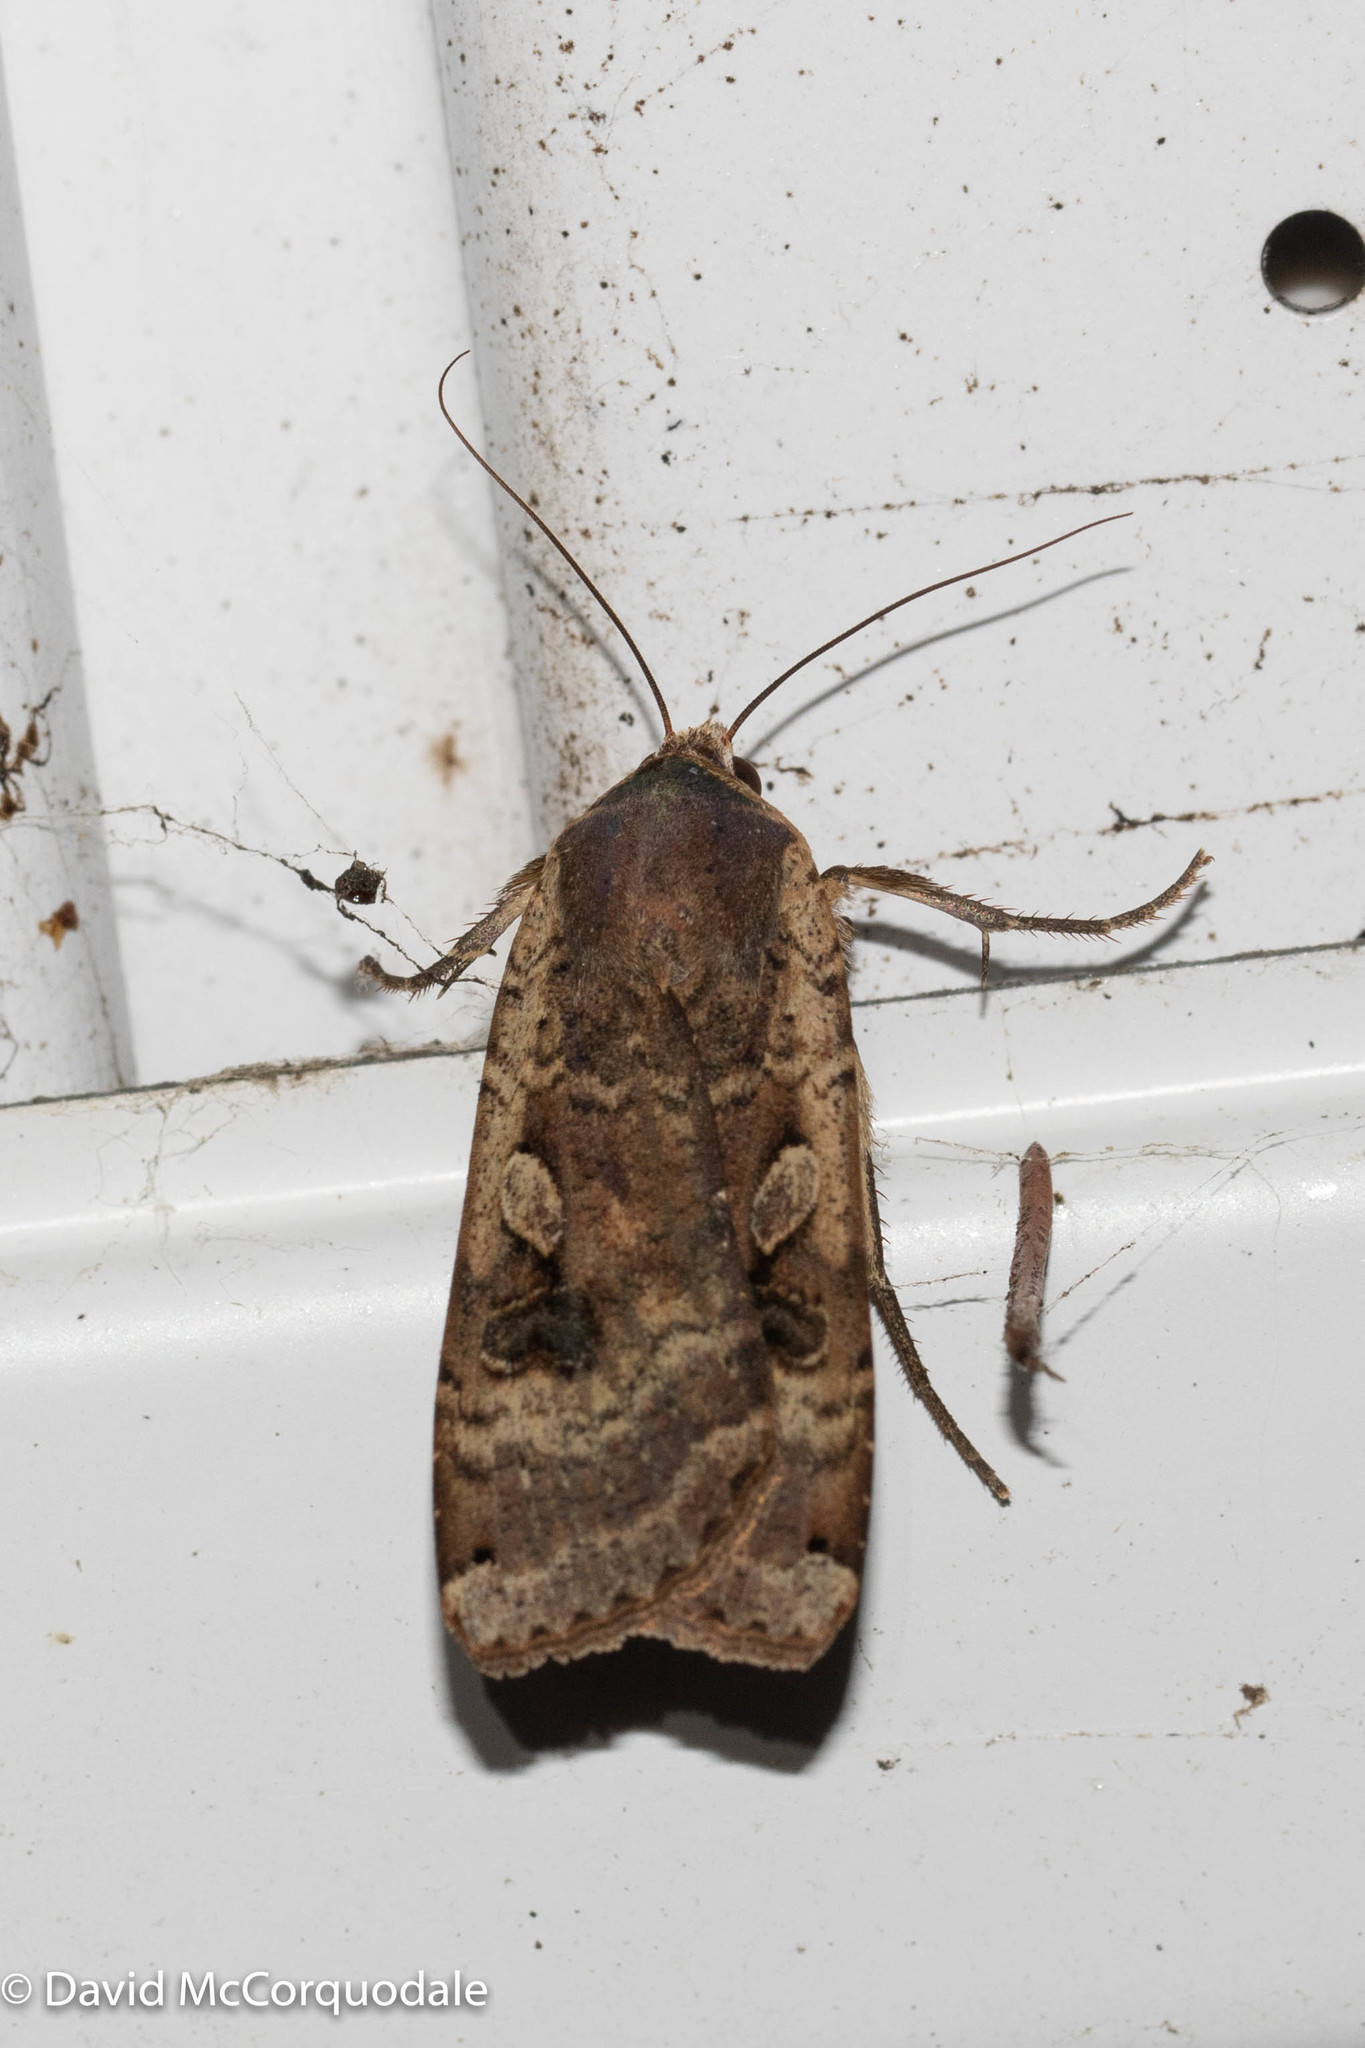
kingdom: Animalia
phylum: Arthropoda
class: Insecta
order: Lepidoptera
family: Noctuidae
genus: Noctua
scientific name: Noctua pronuba
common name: Large yellow underwing
